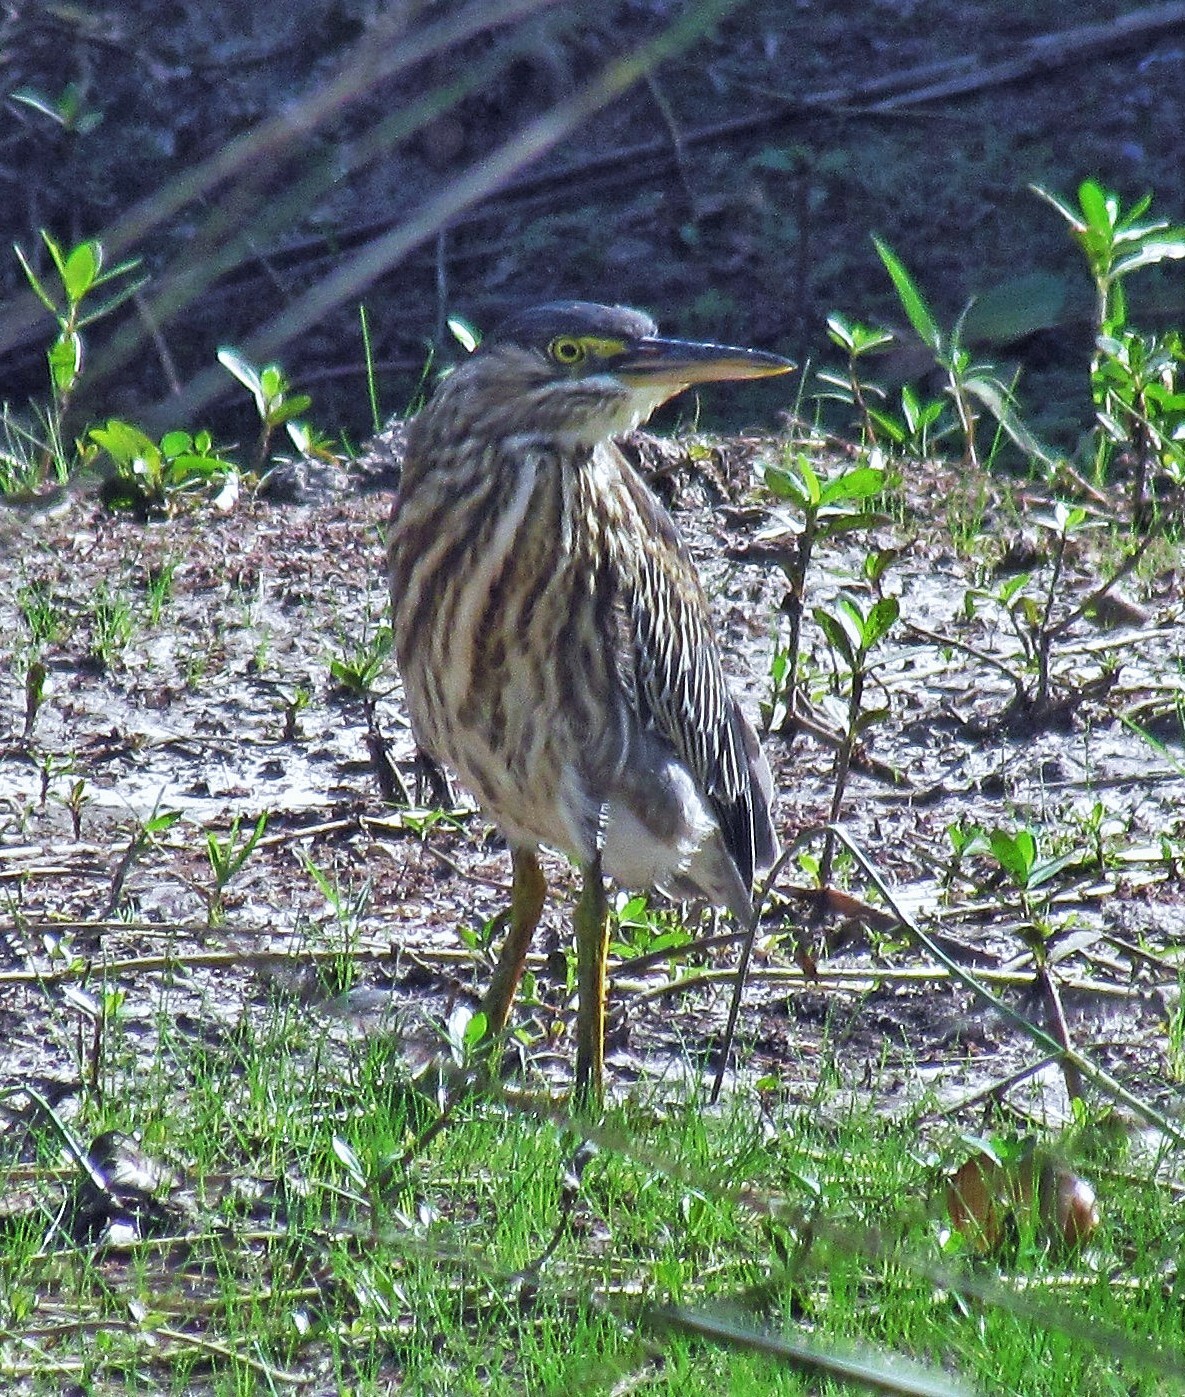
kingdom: Animalia
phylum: Chordata
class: Aves
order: Pelecaniformes
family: Ardeidae
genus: Butorides
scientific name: Butorides striata
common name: Striated heron
